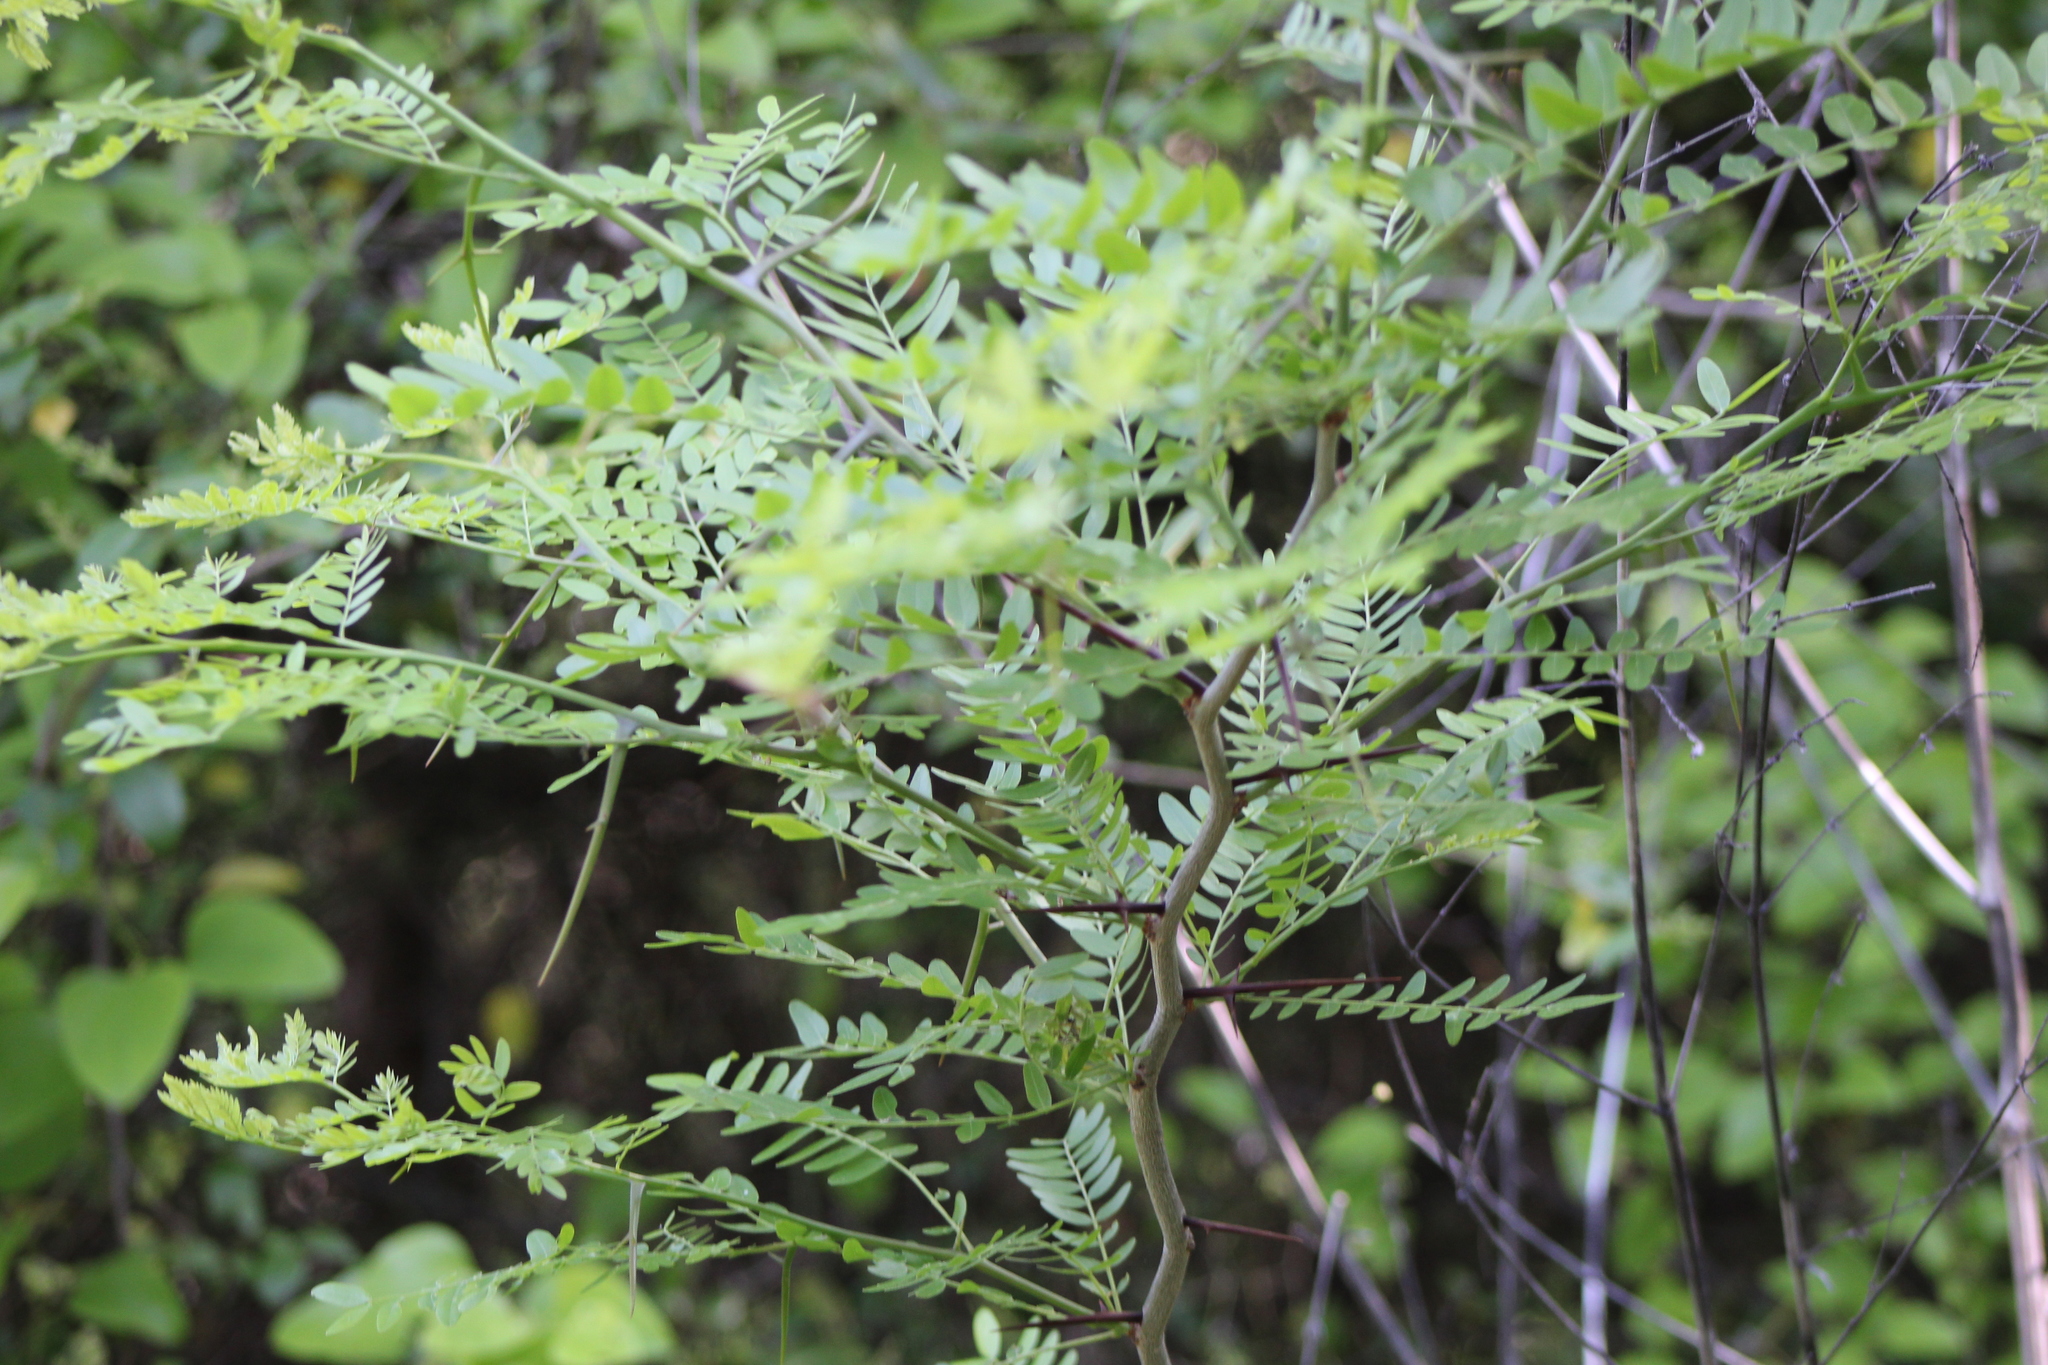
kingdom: Plantae
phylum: Tracheophyta
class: Magnoliopsida
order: Fabales
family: Fabaceae
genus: Gleditsia
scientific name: Gleditsia triacanthos
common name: Common honeylocust
